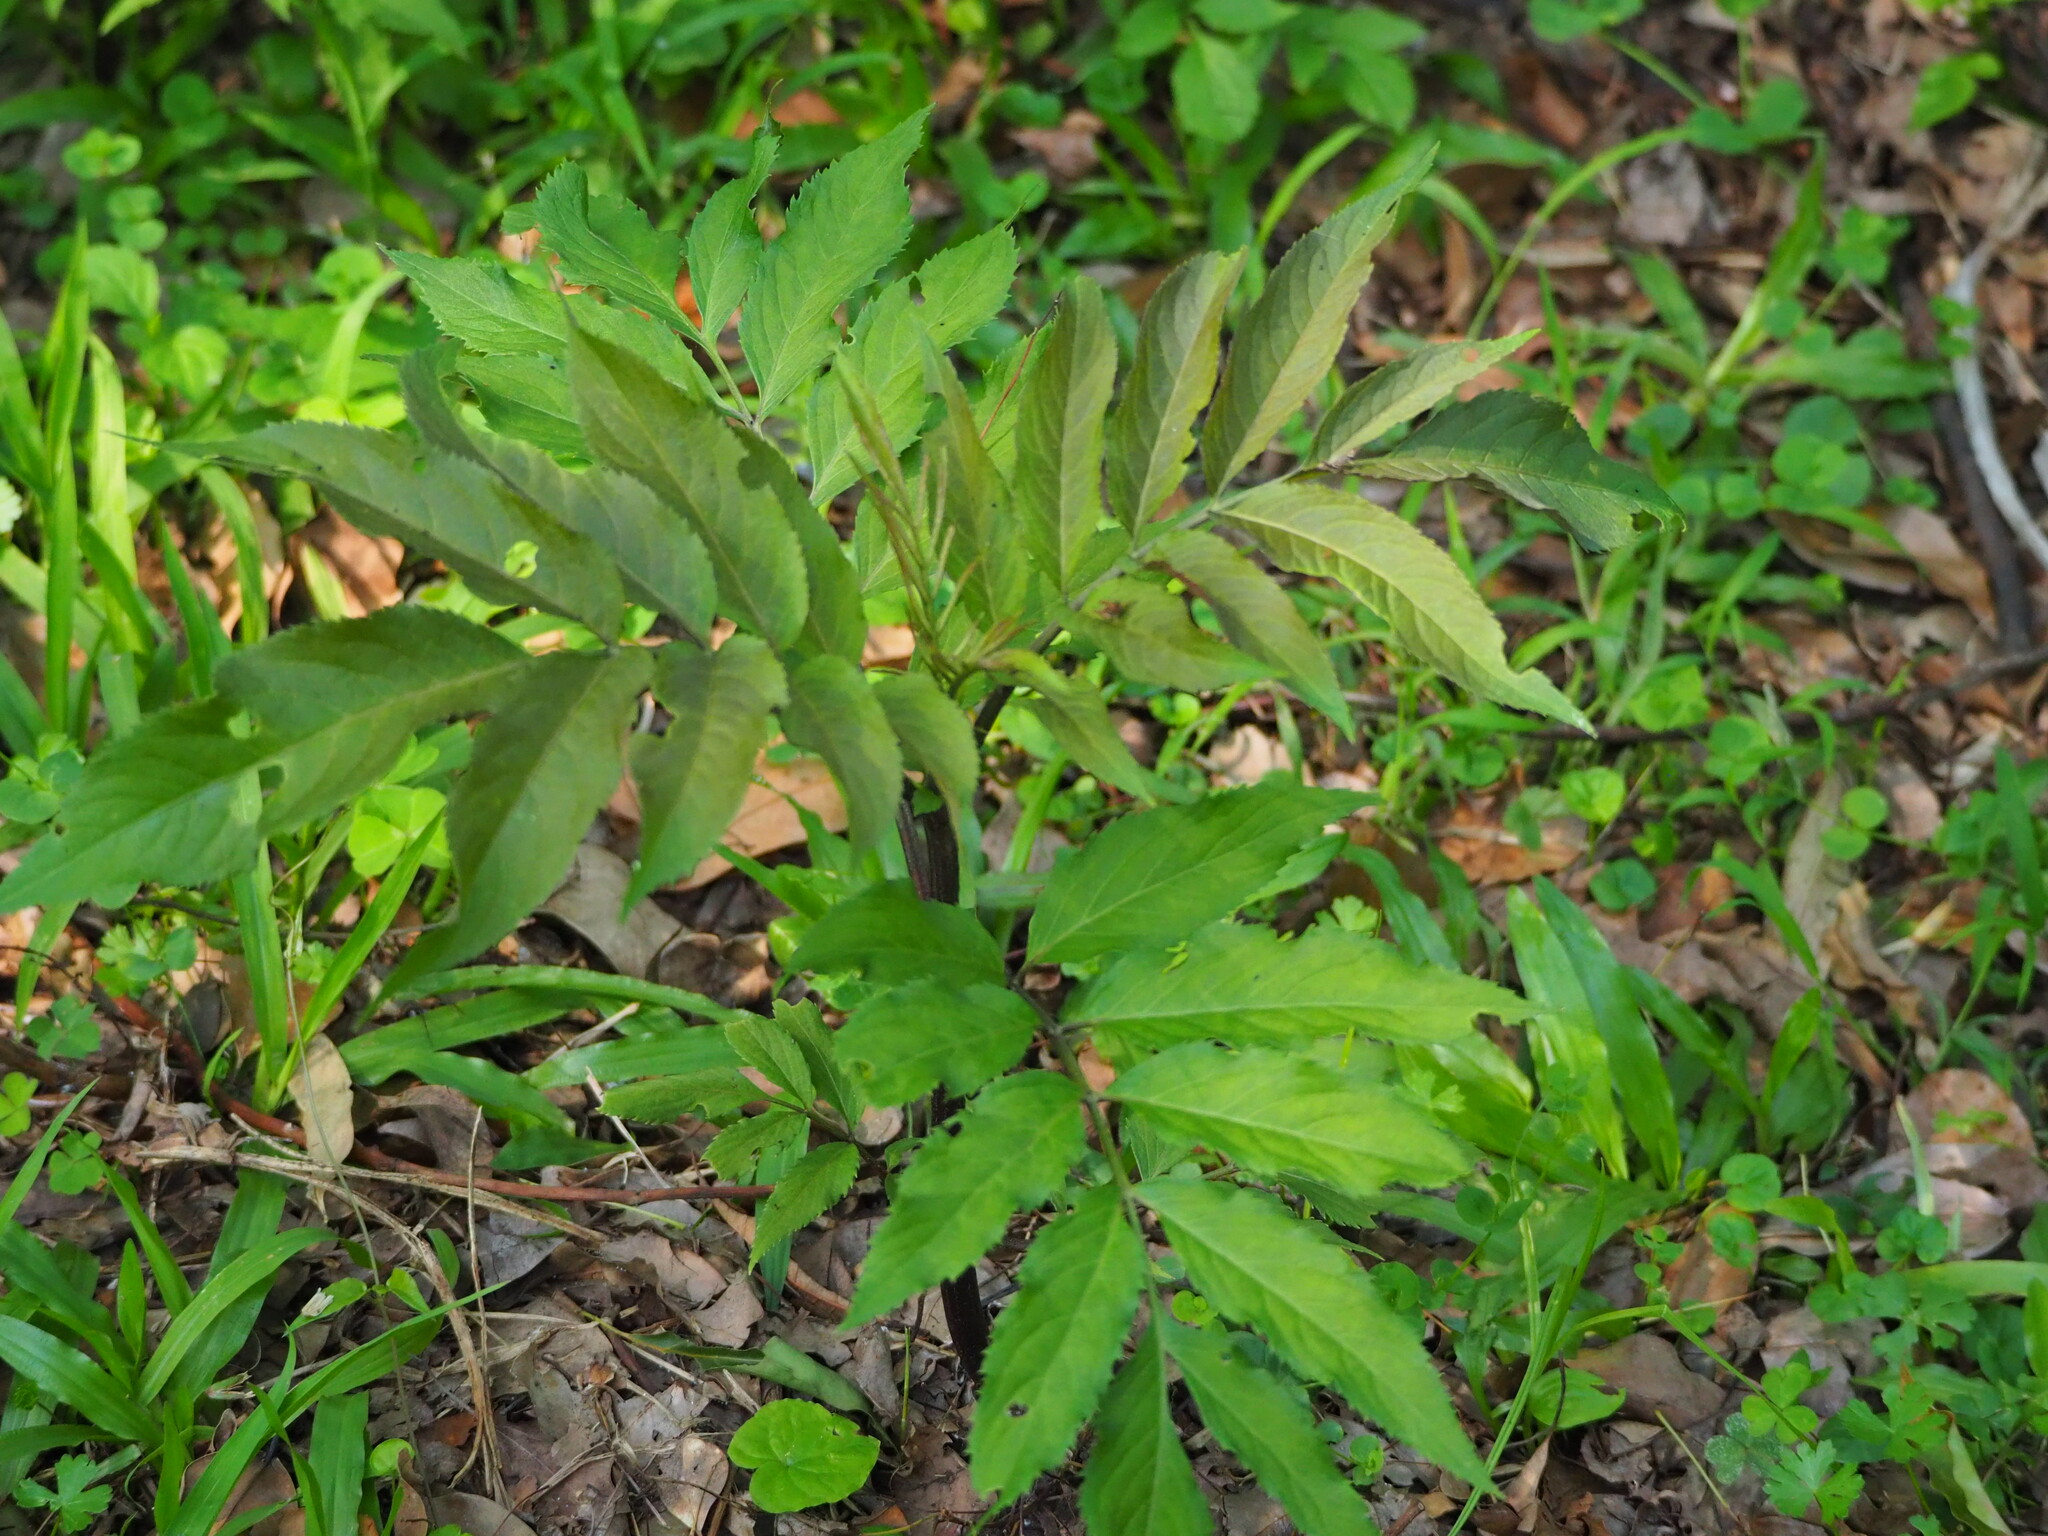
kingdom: Plantae
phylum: Tracheophyta
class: Magnoliopsida
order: Dipsacales
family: Viburnaceae
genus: Sambucus
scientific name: Sambucus javanica
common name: Chinese elder
